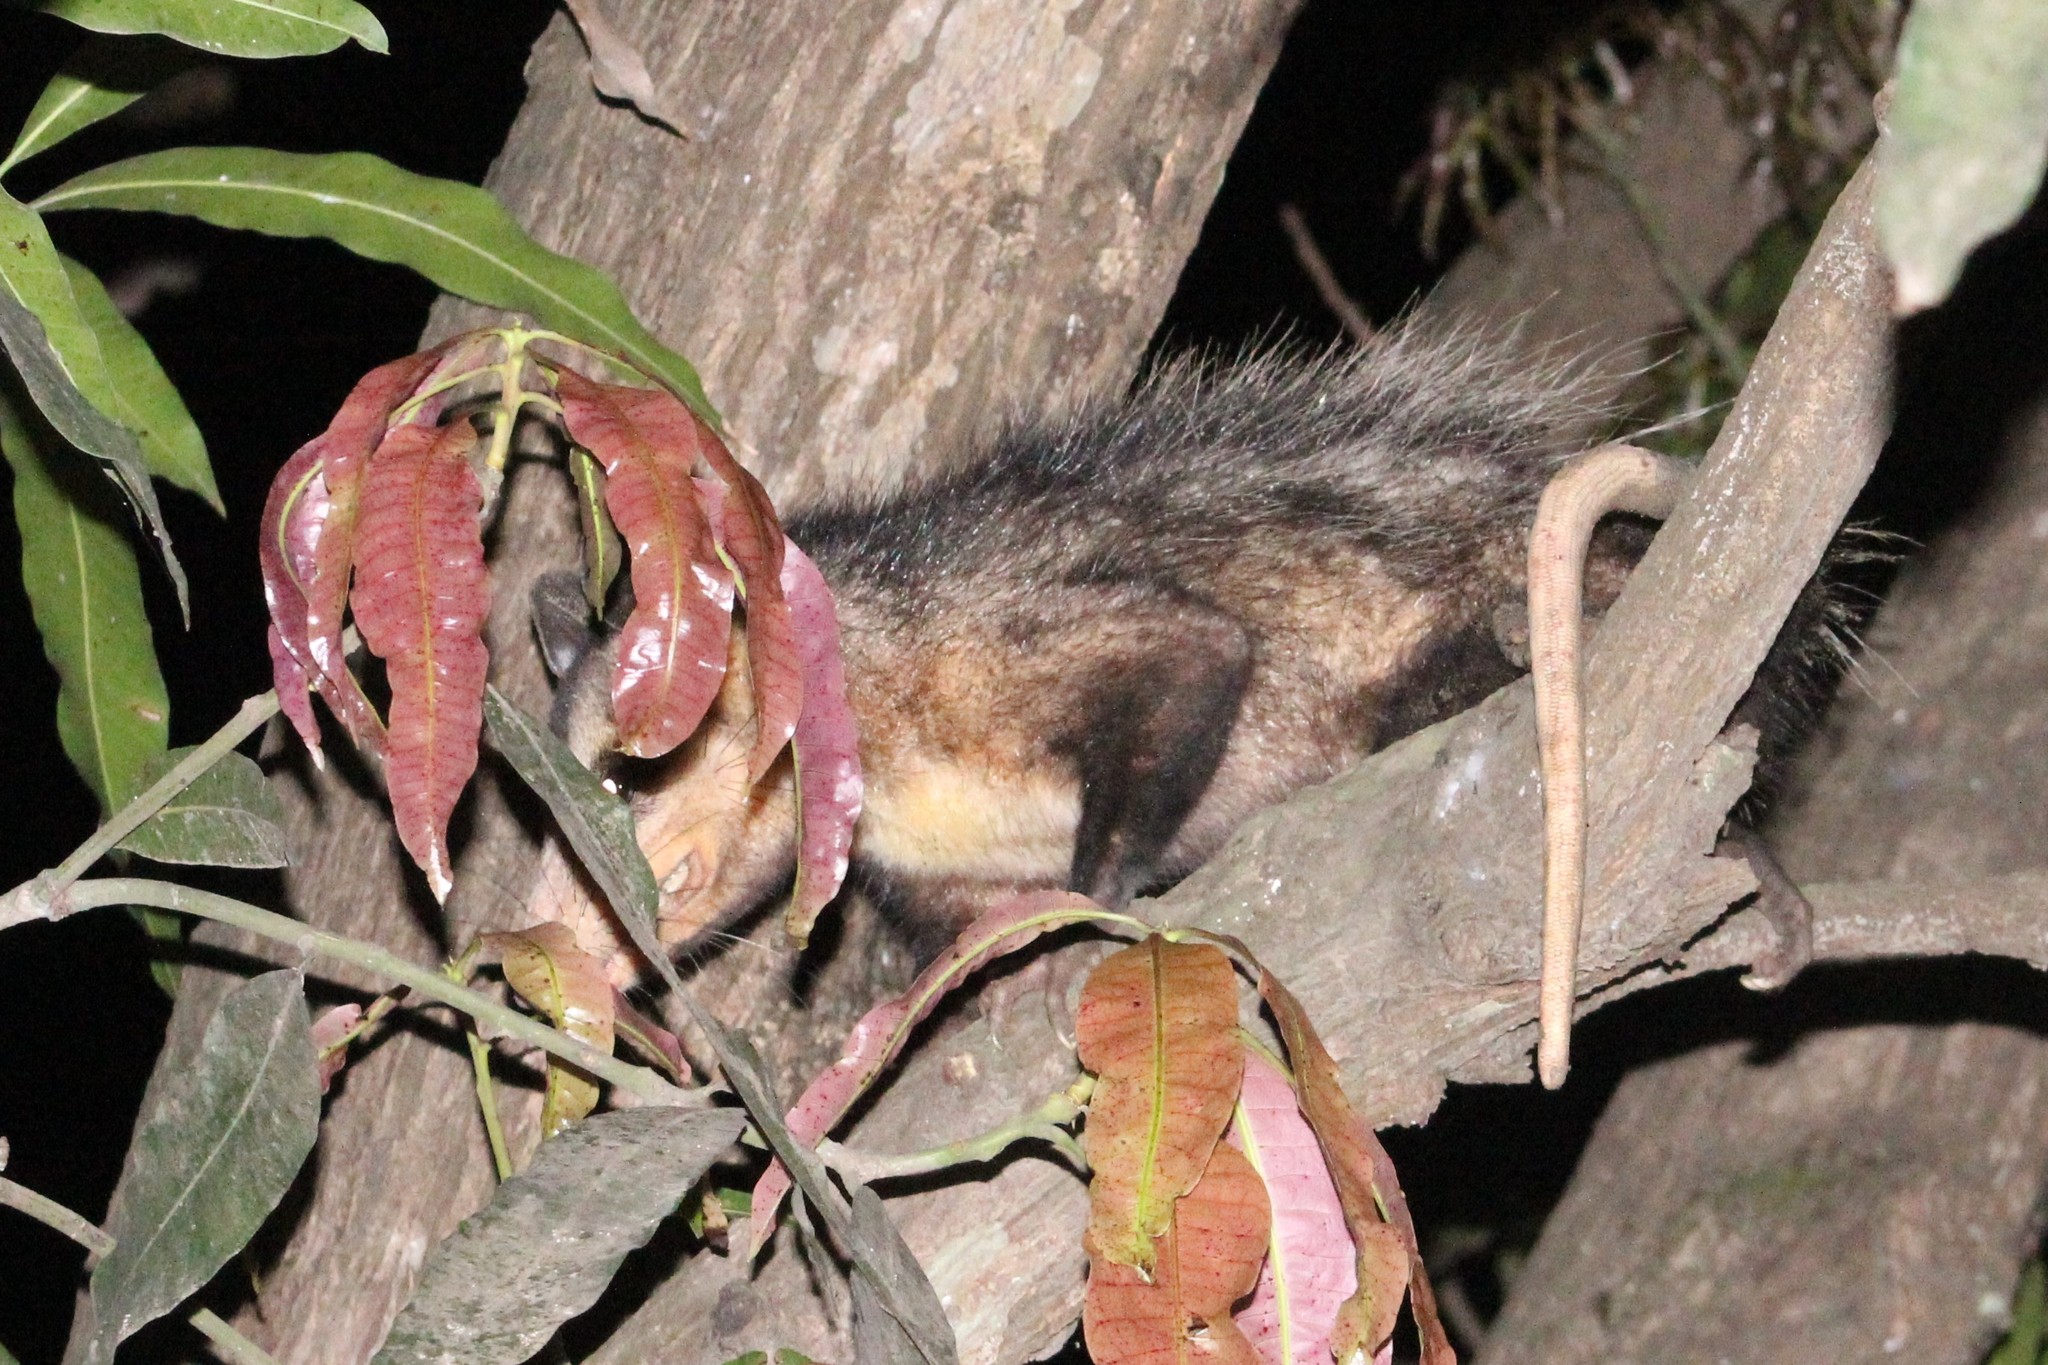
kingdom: Animalia
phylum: Chordata
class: Mammalia
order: Didelphimorphia
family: Didelphidae
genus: Didelphis
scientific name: Didelphis marsupialis
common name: Common opossum
